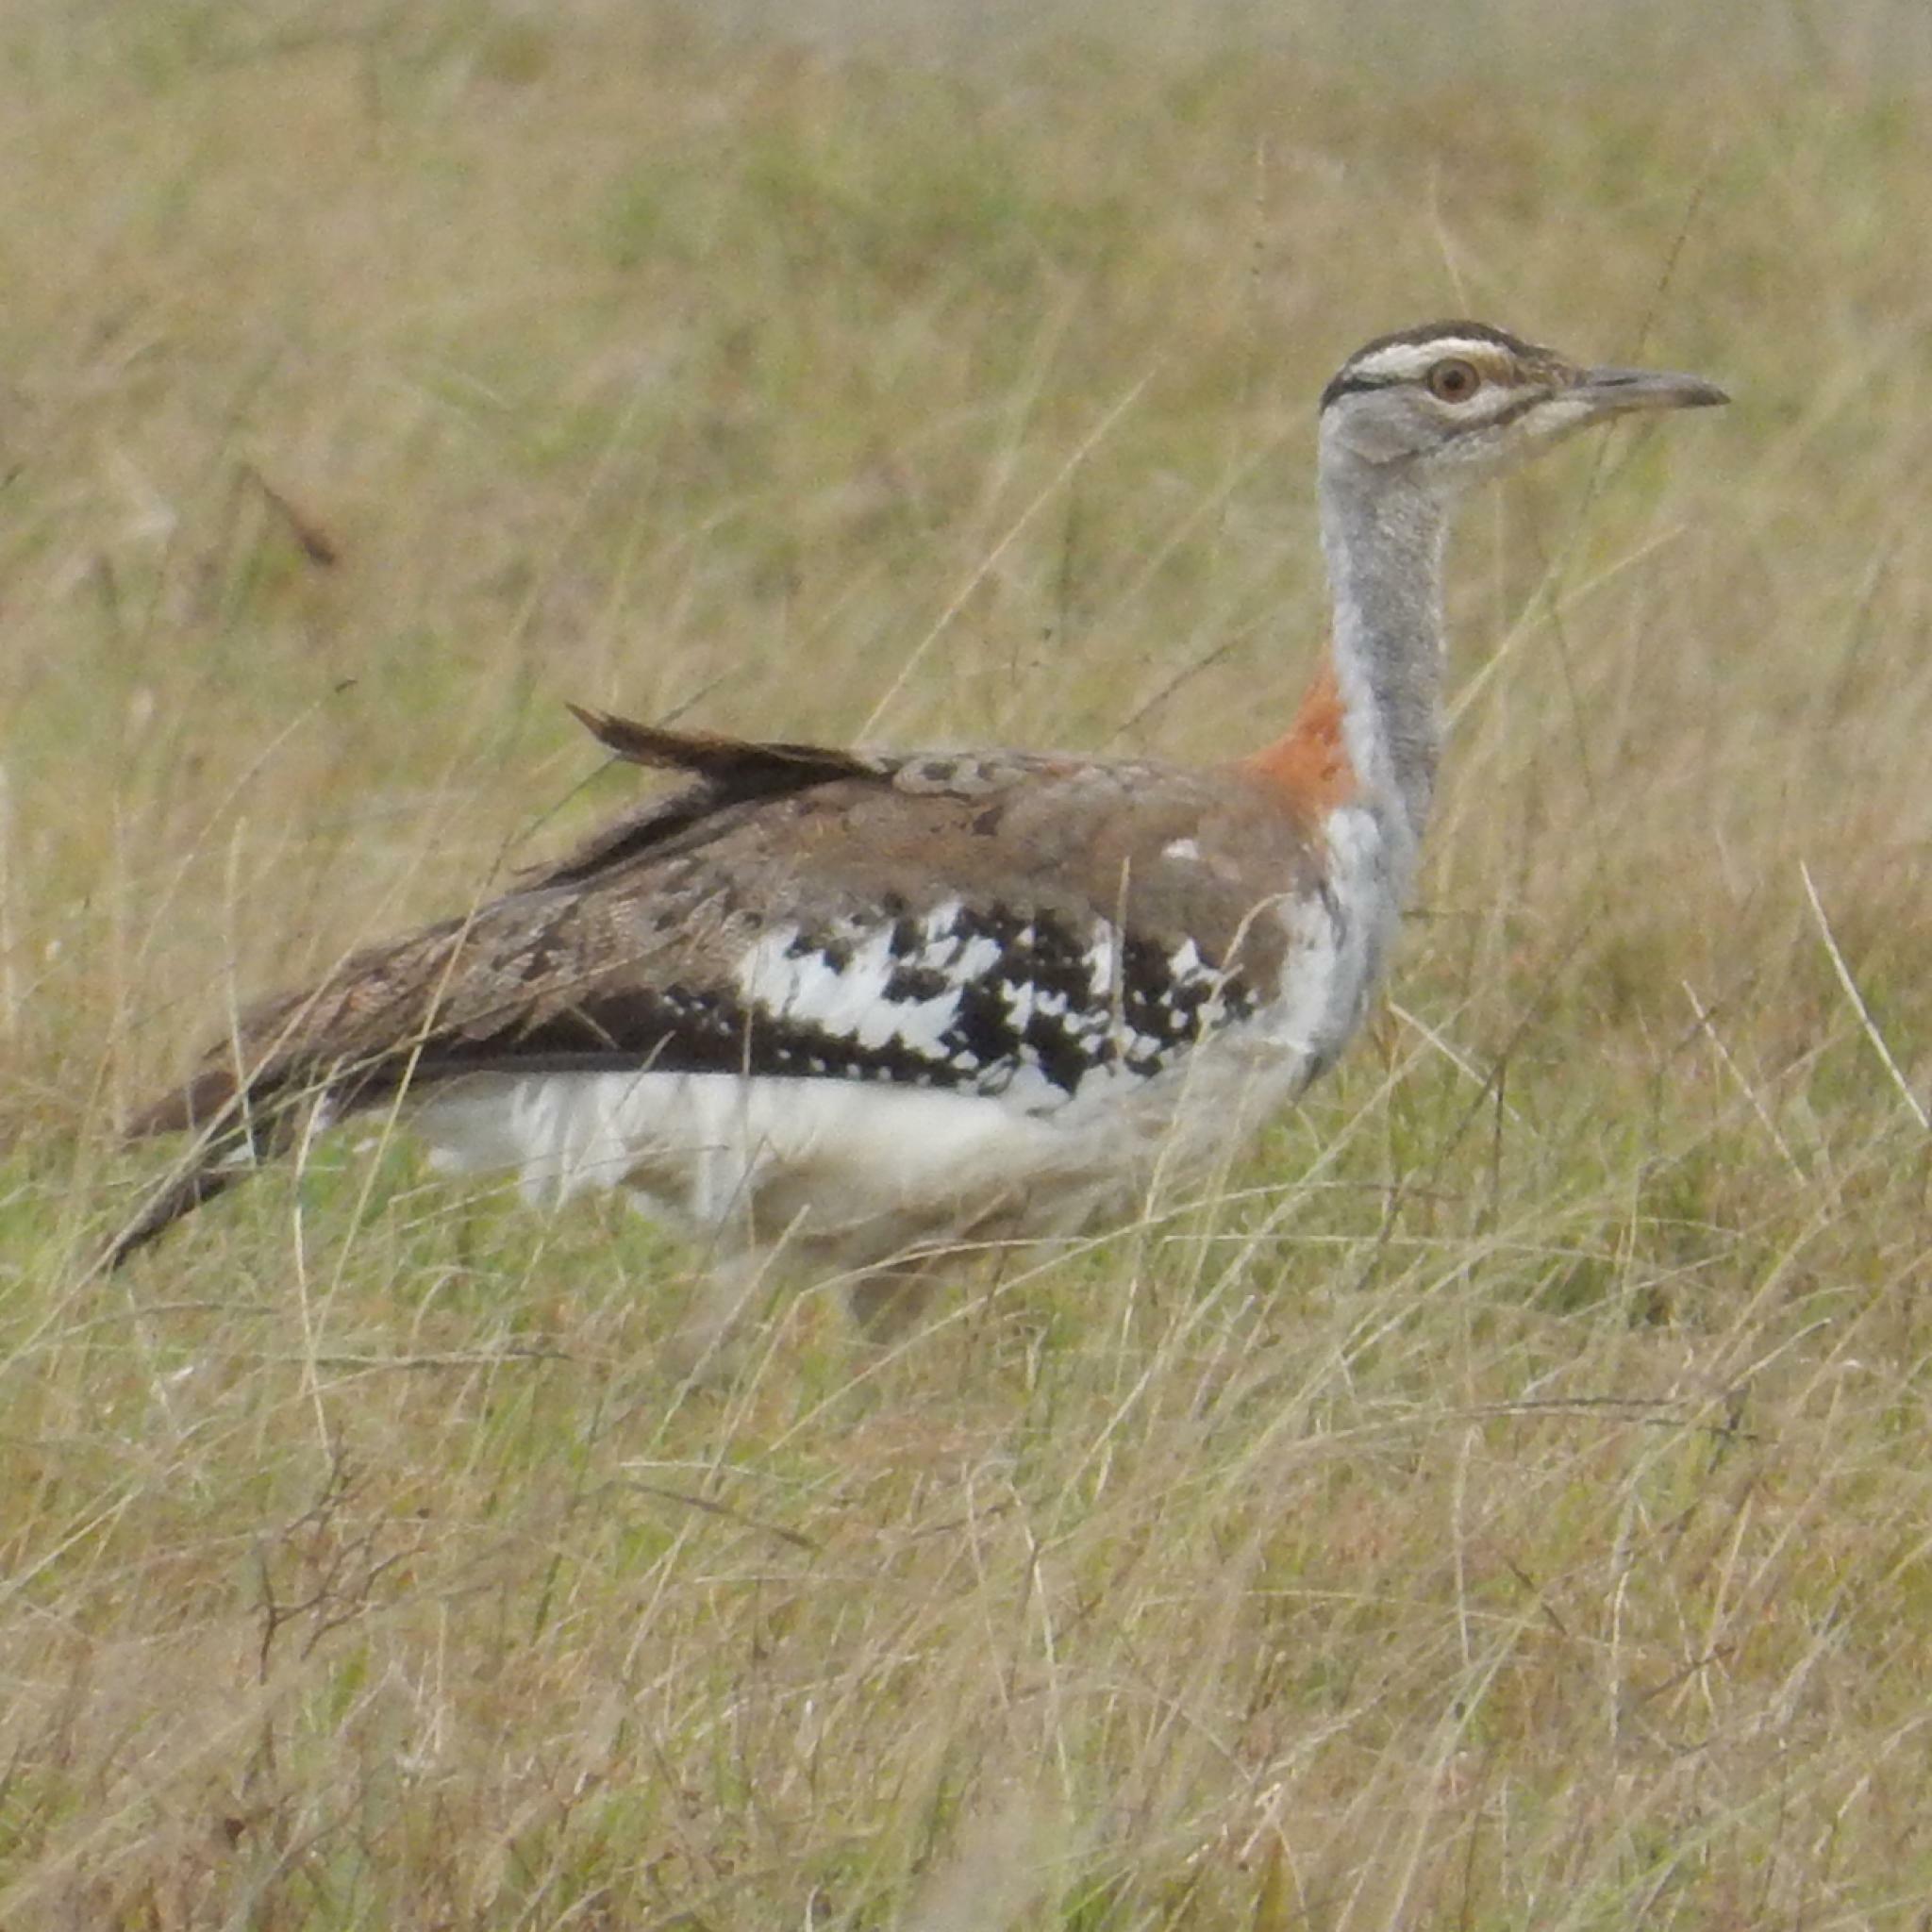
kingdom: Animalia
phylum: Chordata
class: Aves
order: Otidiformes
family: Otididae
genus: Neotis
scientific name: Neotis denhami
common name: Denham's bustard
